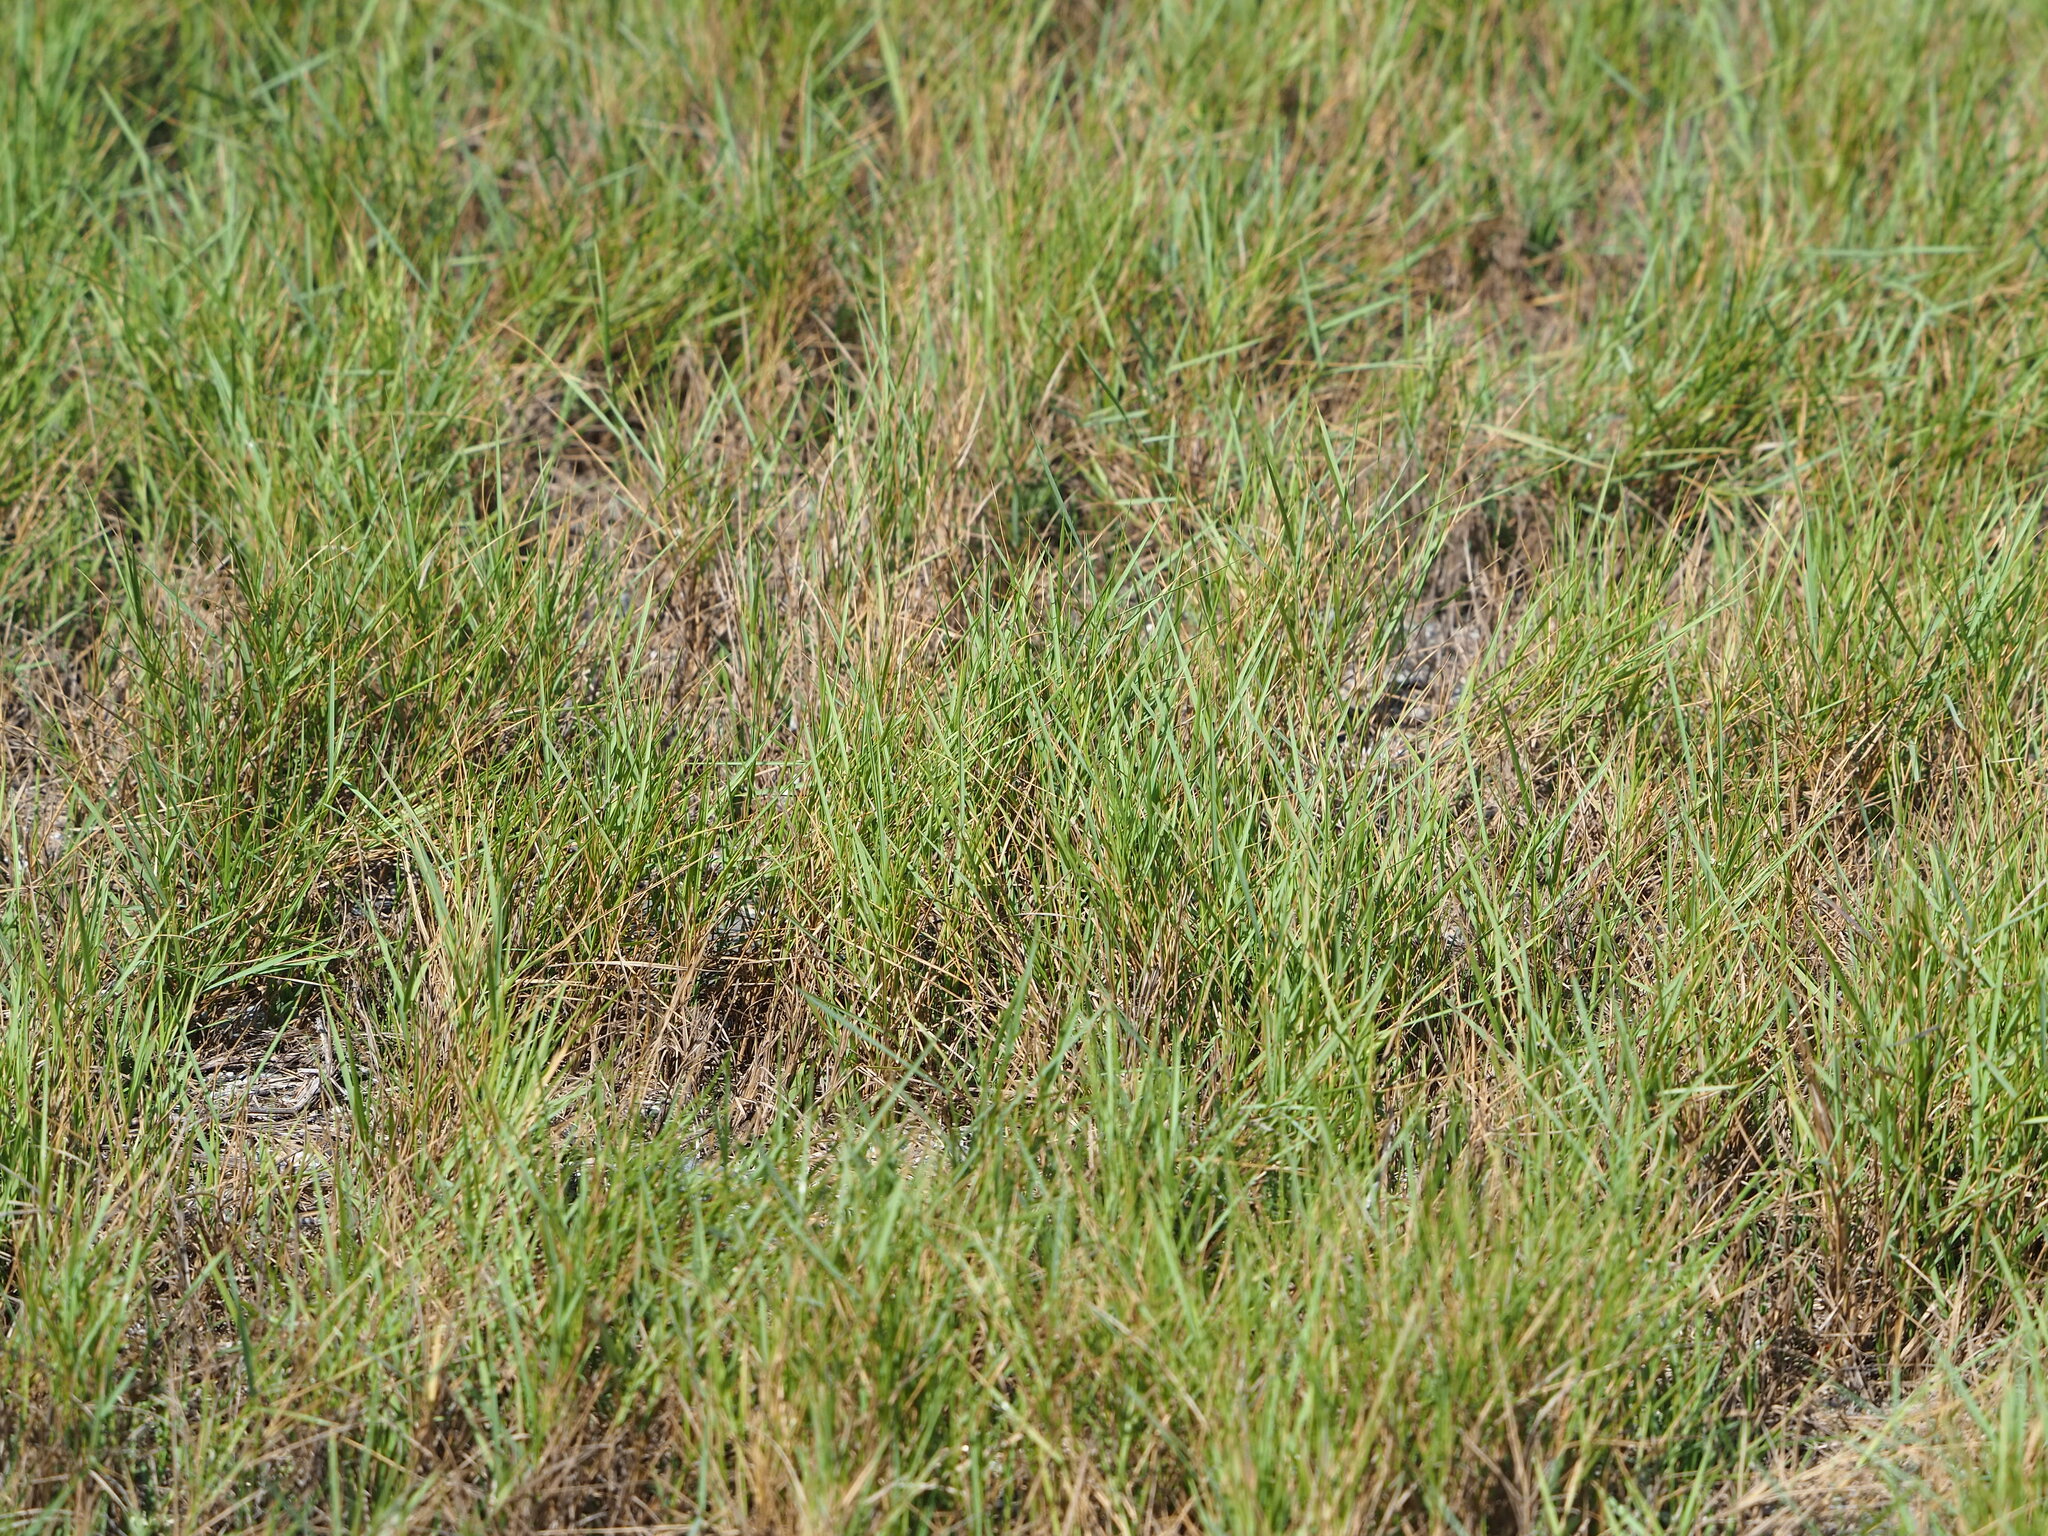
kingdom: Plantae
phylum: Tracheophyta
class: Liliopsida
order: Poales
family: Poaceae
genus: Cynodon
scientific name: Cynodon dactylon
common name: Bermuda grass
